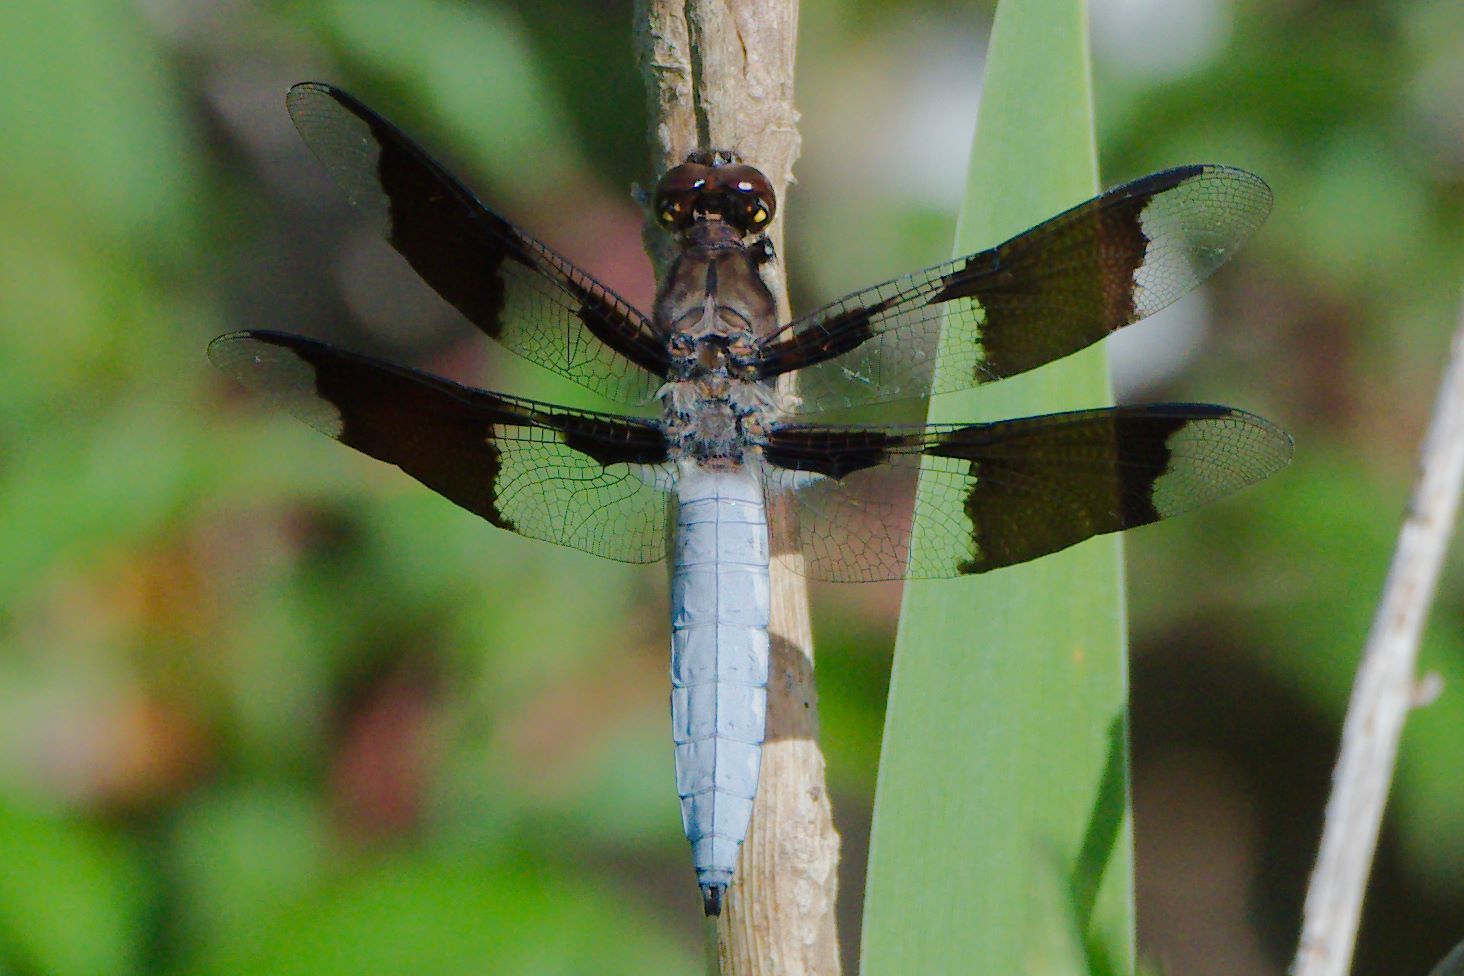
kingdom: Animalia
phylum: Arthropoda
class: Insecta
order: Odonata
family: Libellulidae
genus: Plathemis
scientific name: Plathemis lydia
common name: Common whitetail
